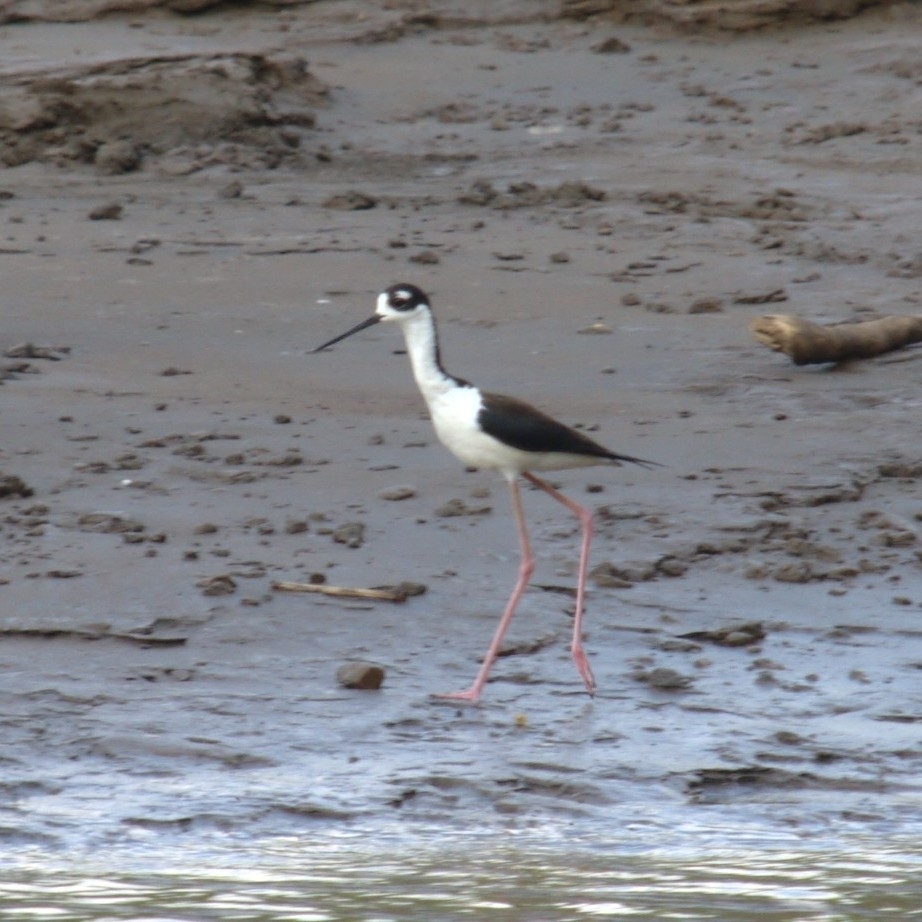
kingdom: Animalia
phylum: Chordata
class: Aves
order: Charadriiformes
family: Recurvirostridae
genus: Himantopus
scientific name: Himantopus mexicanus
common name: Black-necked stilt
